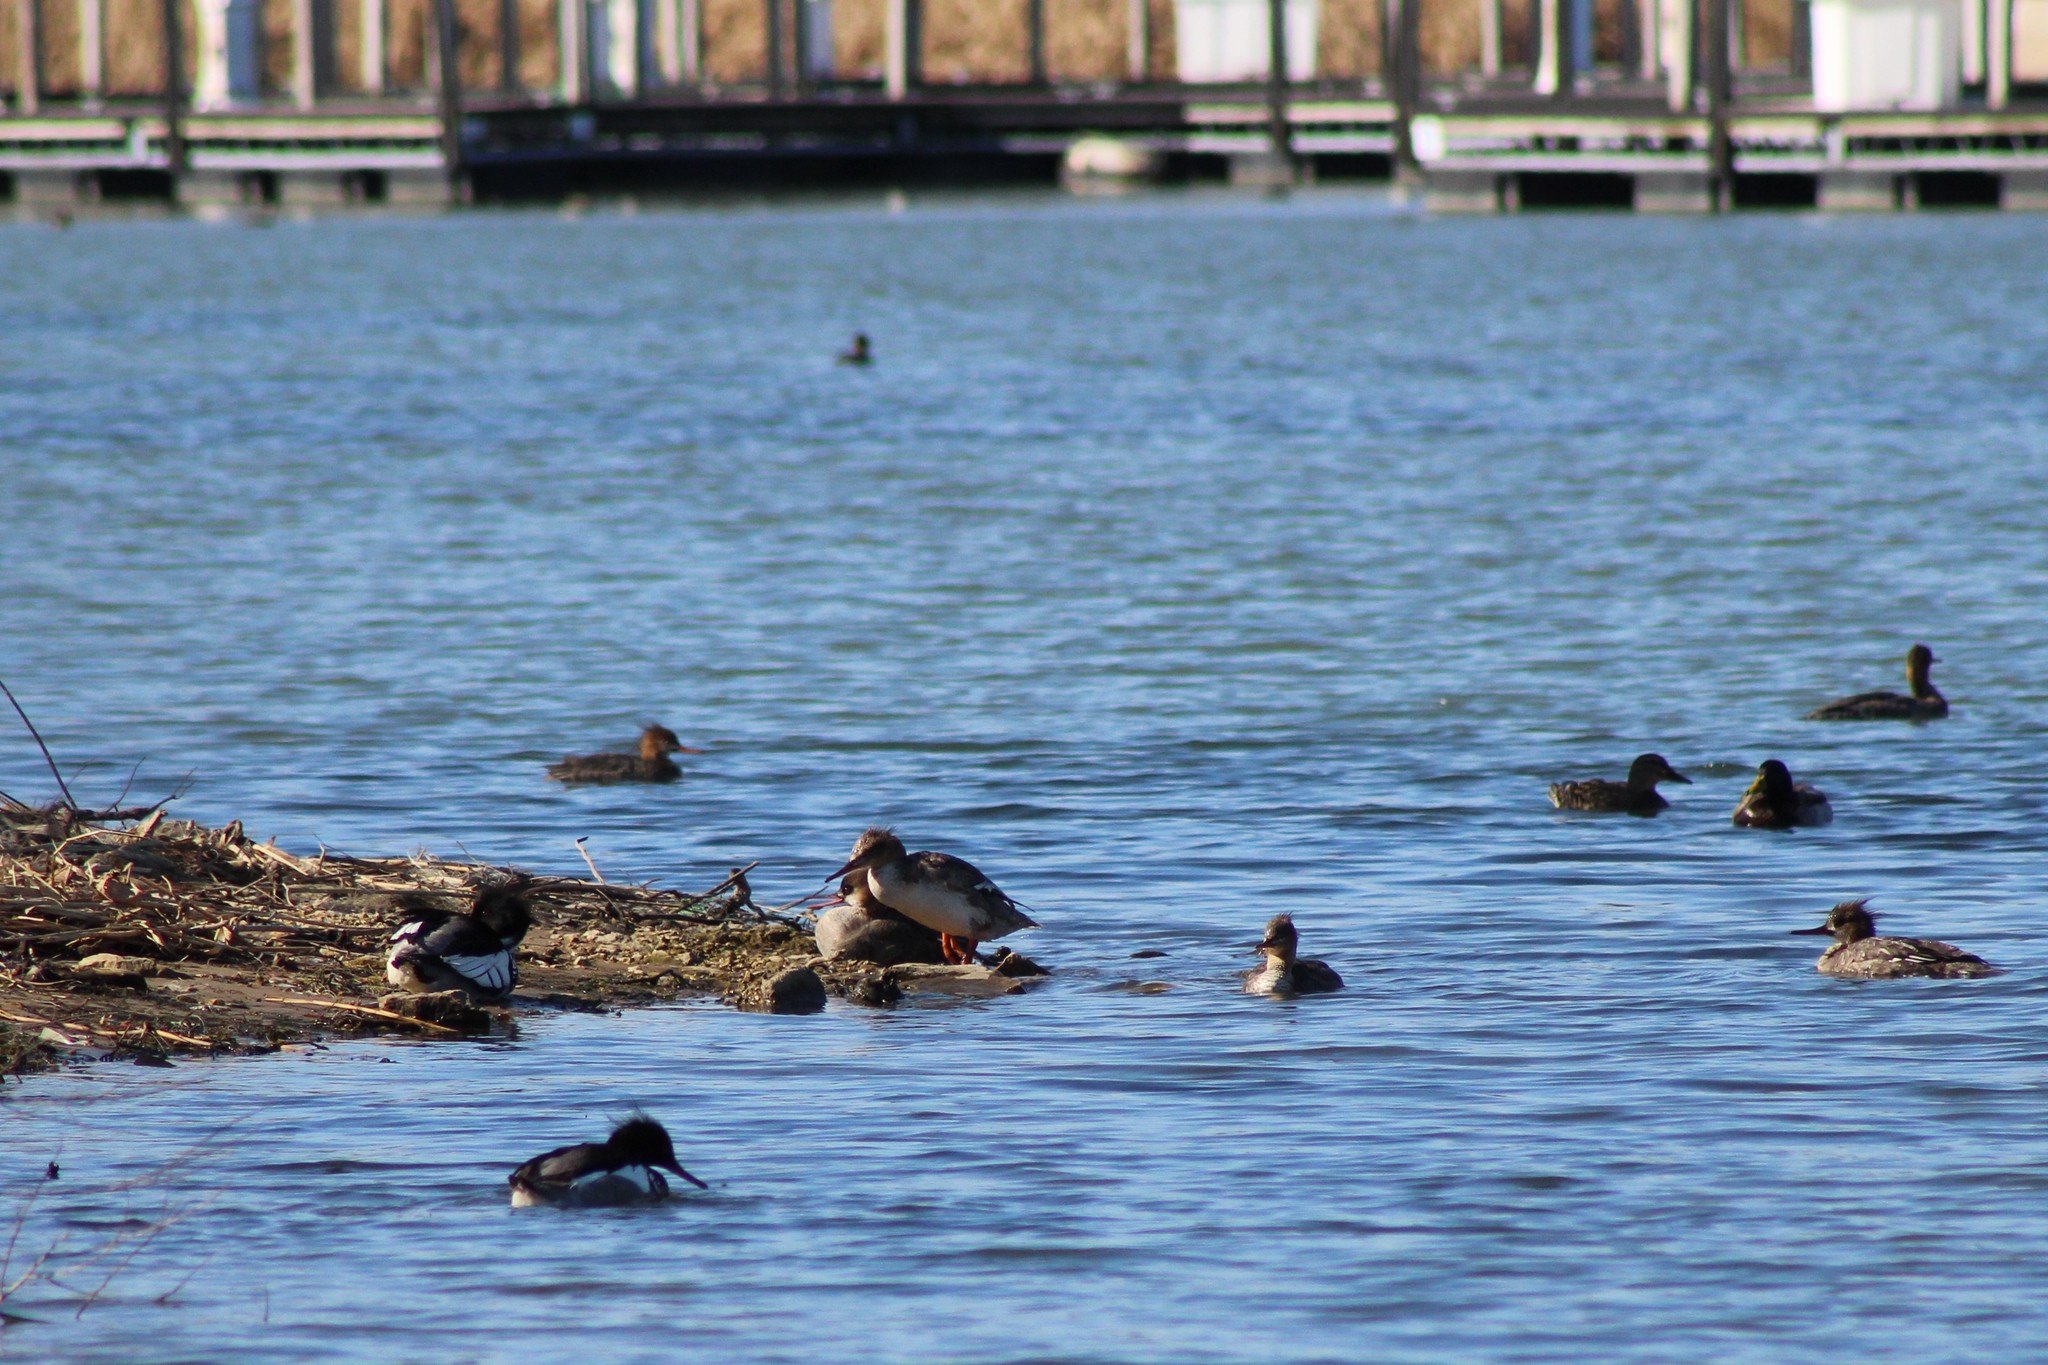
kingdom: Animalia
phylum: Chordata
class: Aves
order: Anseriformes
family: Anatidae
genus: Mergus
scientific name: Mergus serrator
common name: Red-breasted merganser
